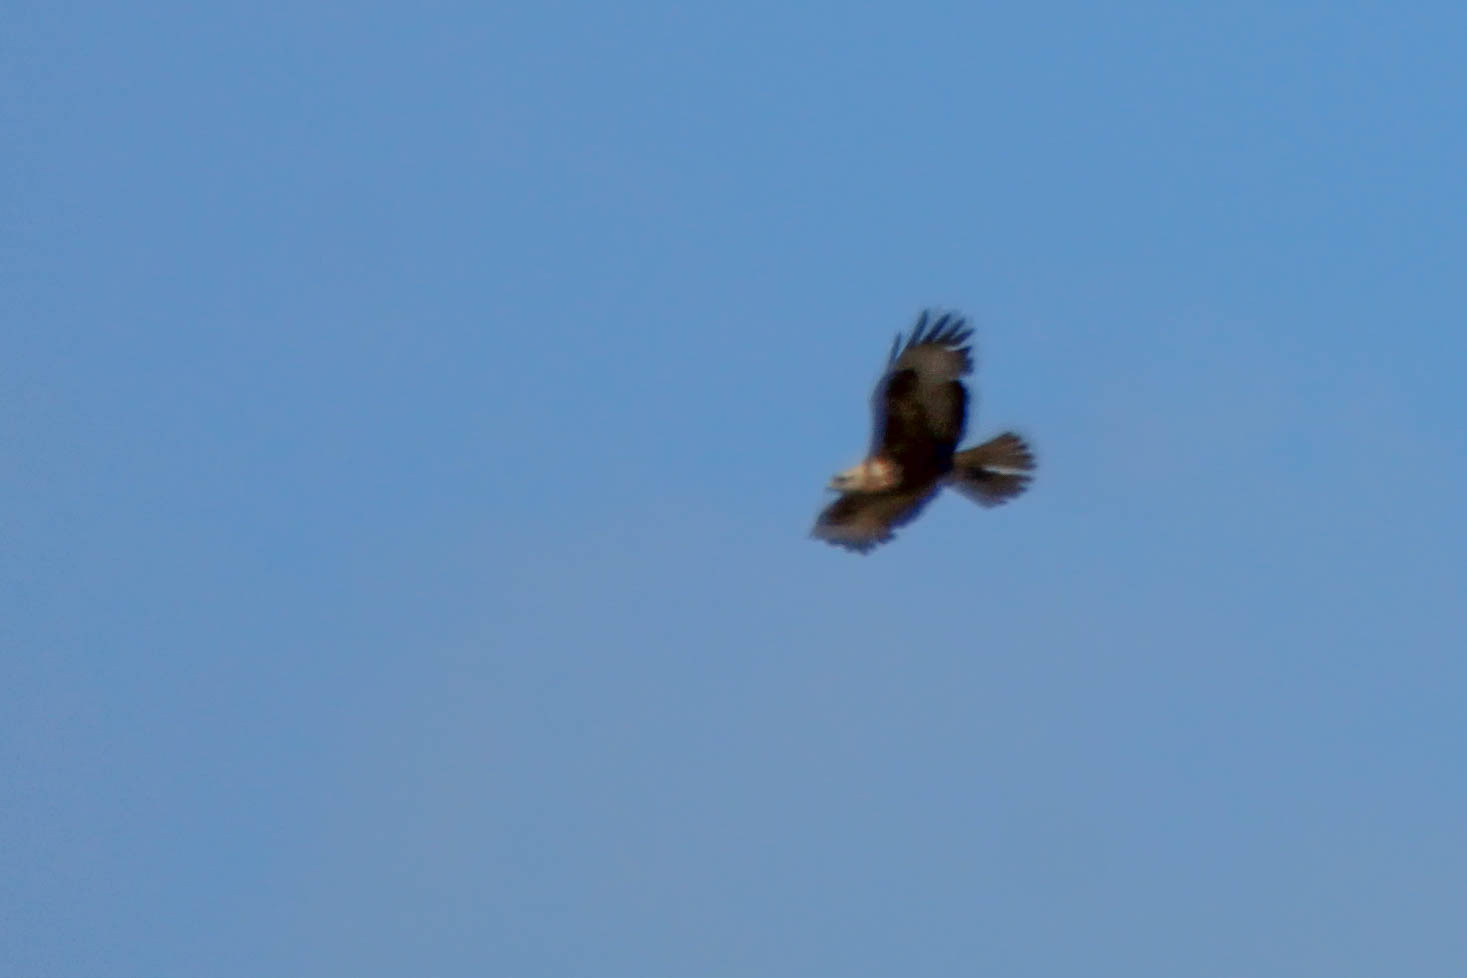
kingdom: Animalia
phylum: Chordata
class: Aves
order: Accipitriformes
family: Accipitridae
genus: Buteo
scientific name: Buteo buteo
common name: Common buzzard
